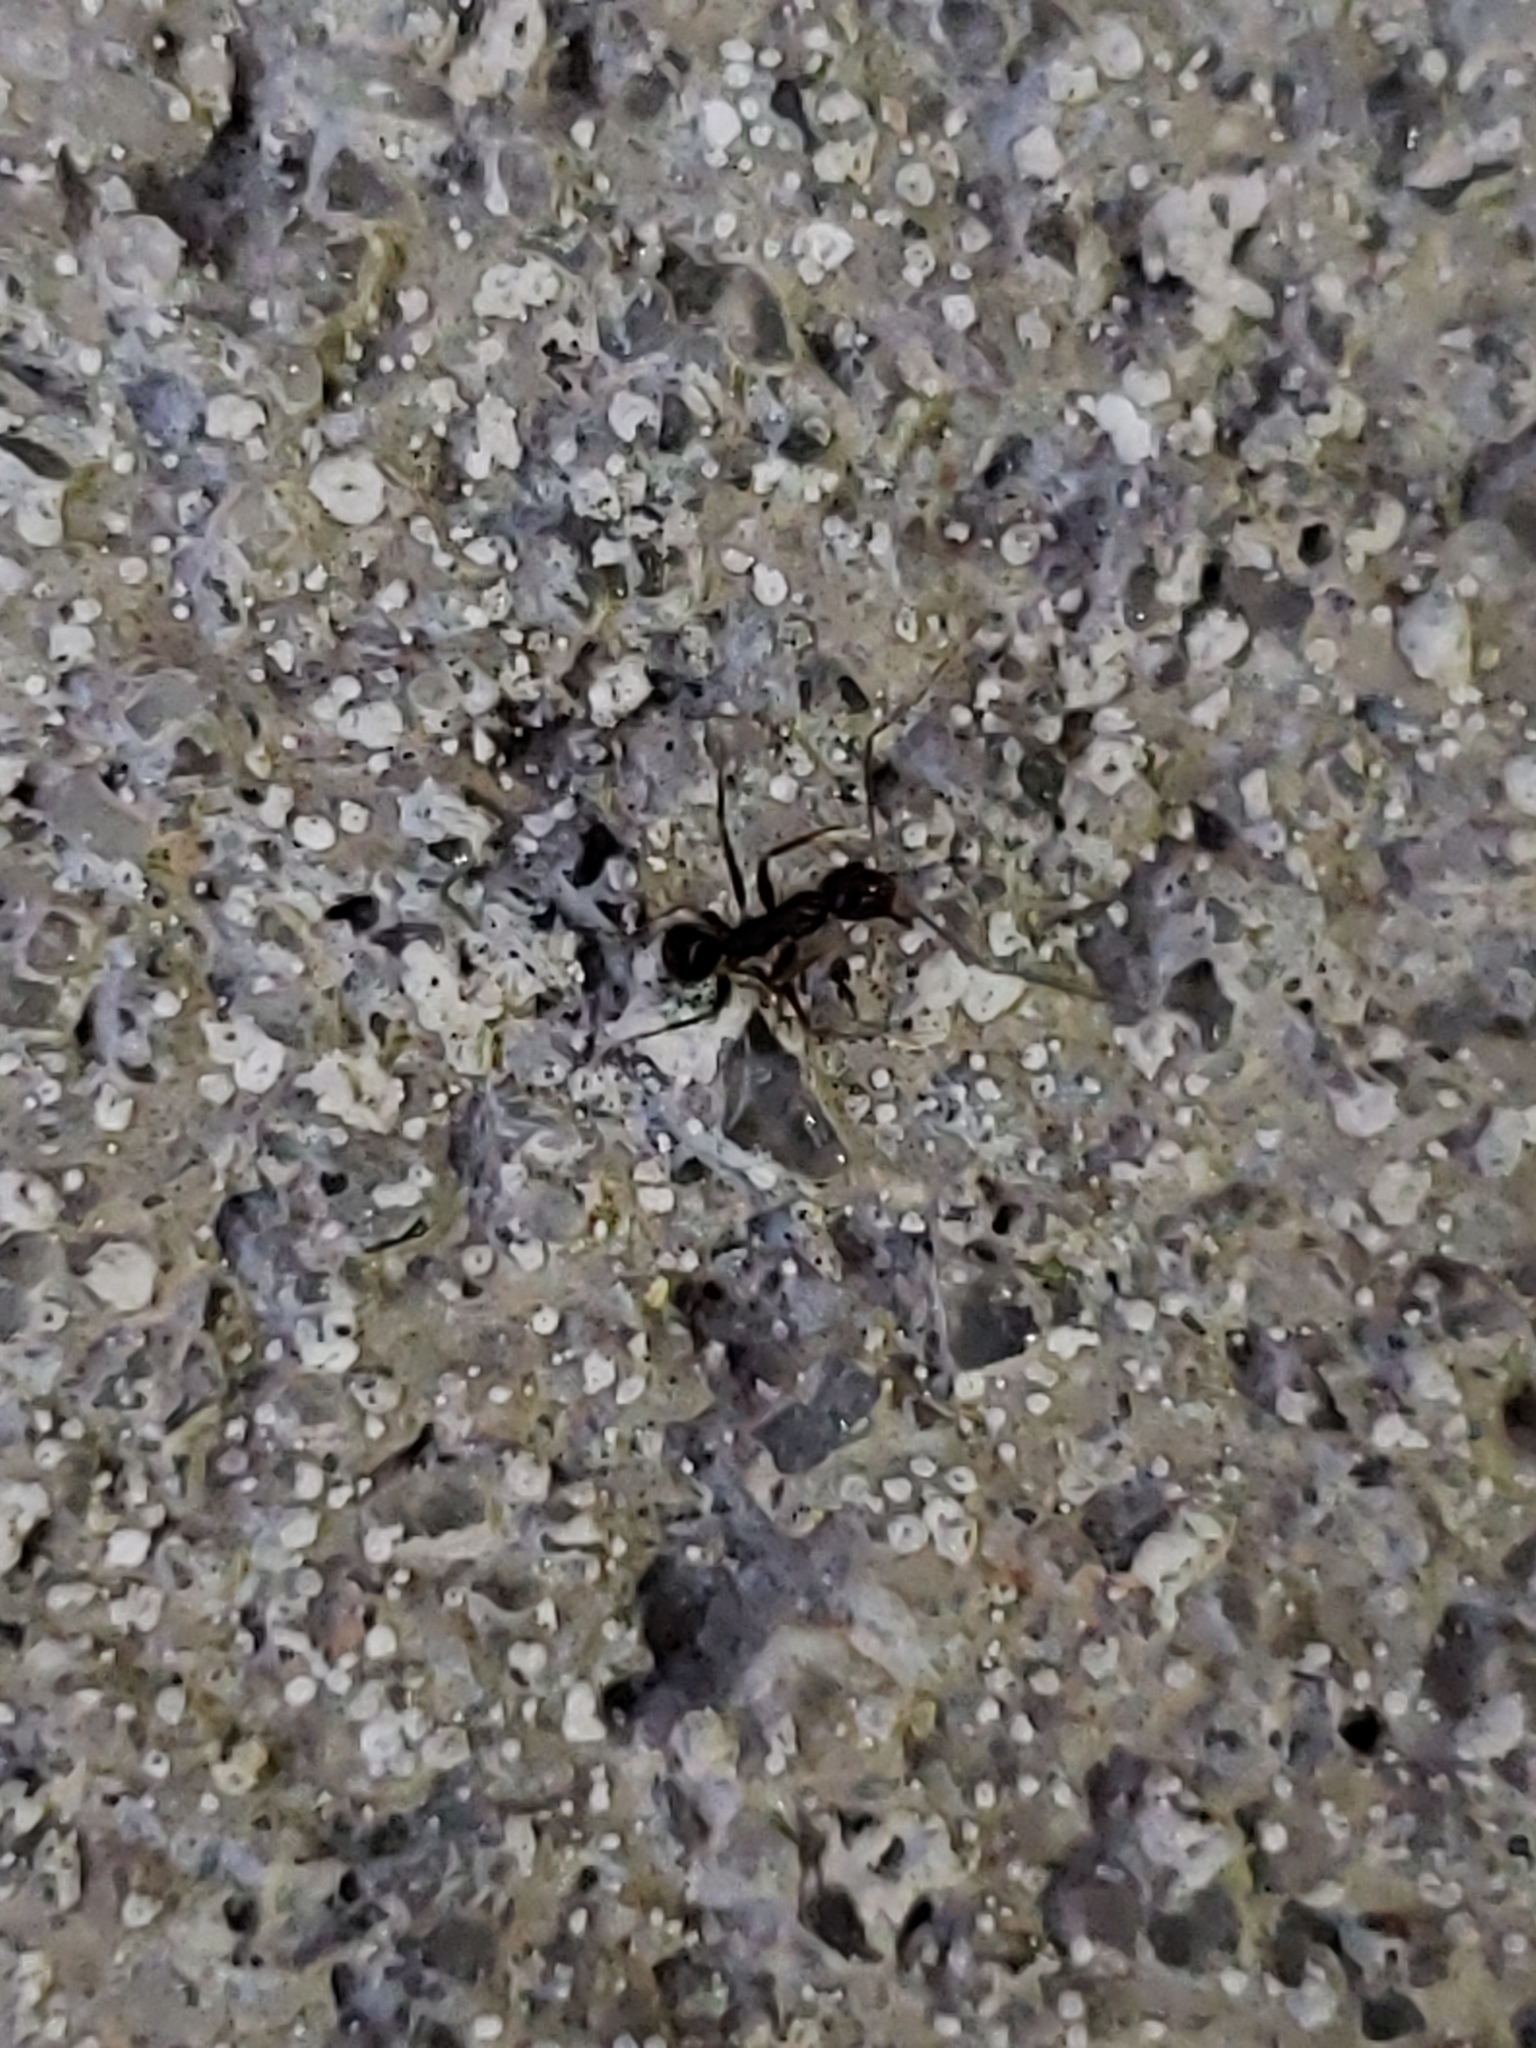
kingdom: Animalia
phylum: Arthropoda
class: Insecta
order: Hymenoptera
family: Formicidae
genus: Paratrechina
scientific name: Paratrechina longicornis
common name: Longhorned crazy ant
